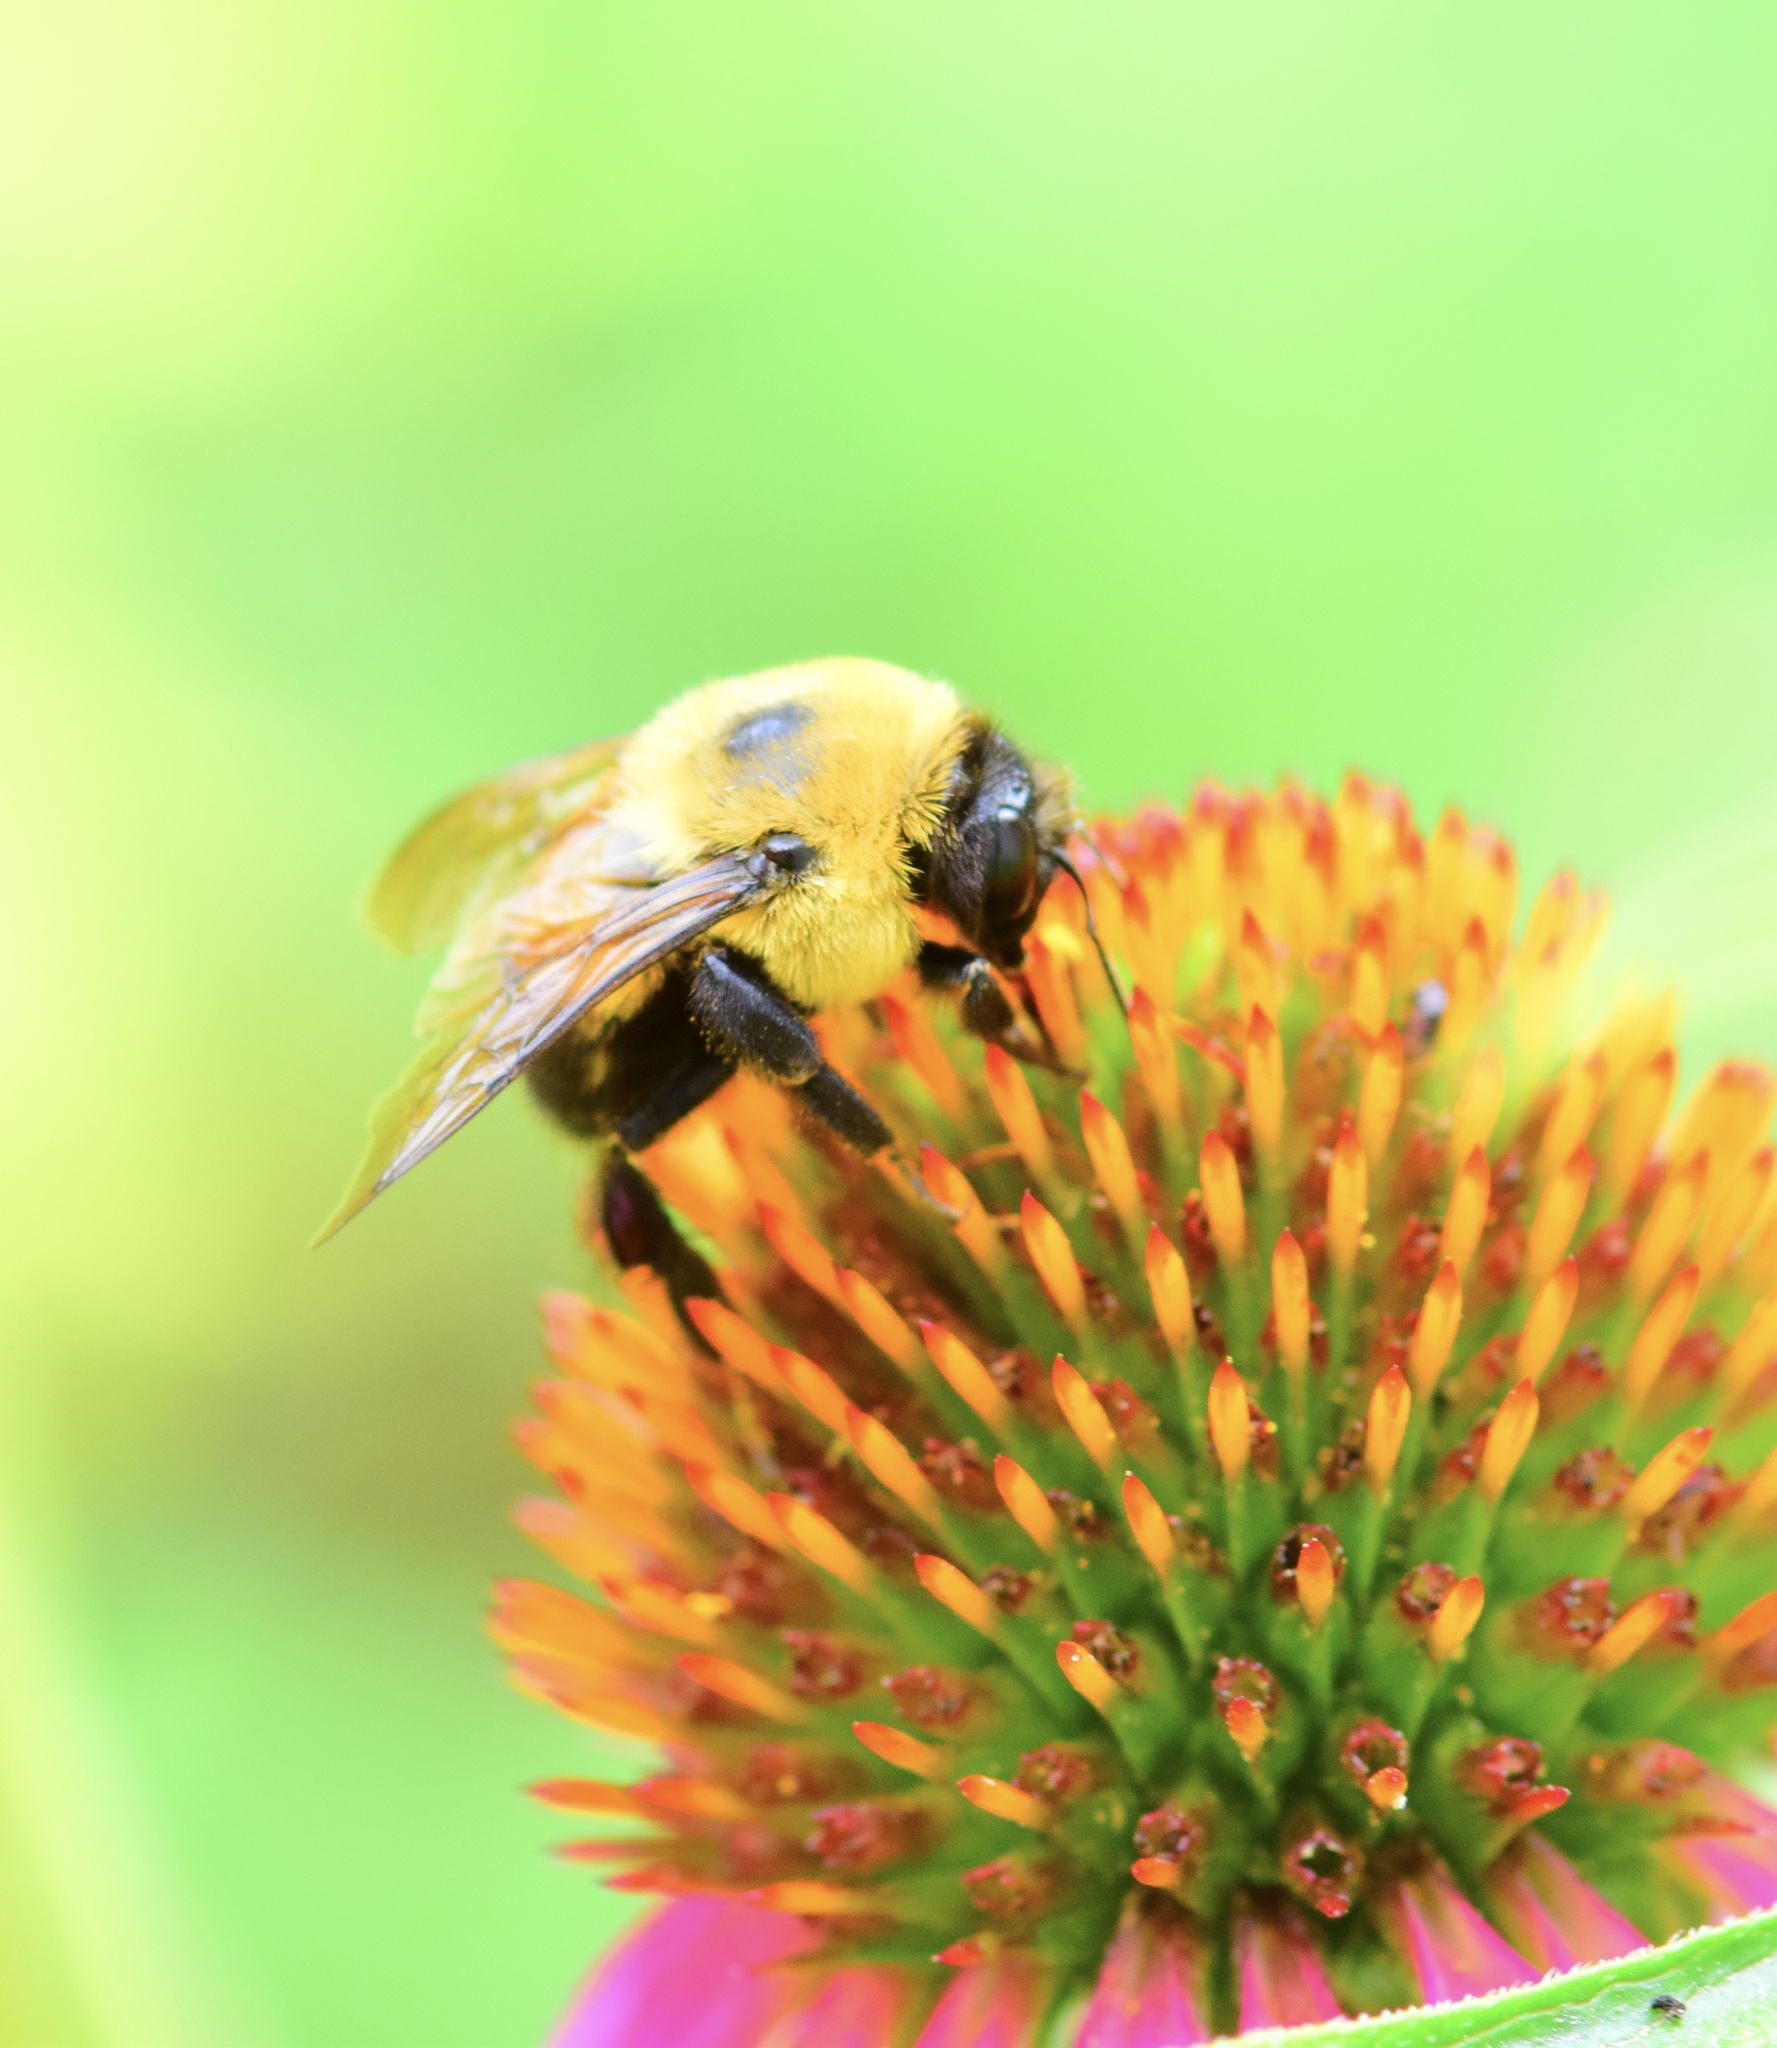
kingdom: Animalia
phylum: Arthropoda
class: Insecta
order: Hymenoptera
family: Apidae
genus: Bombus
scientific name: Bombus griseocollis
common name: Brown-belted bumble bee
